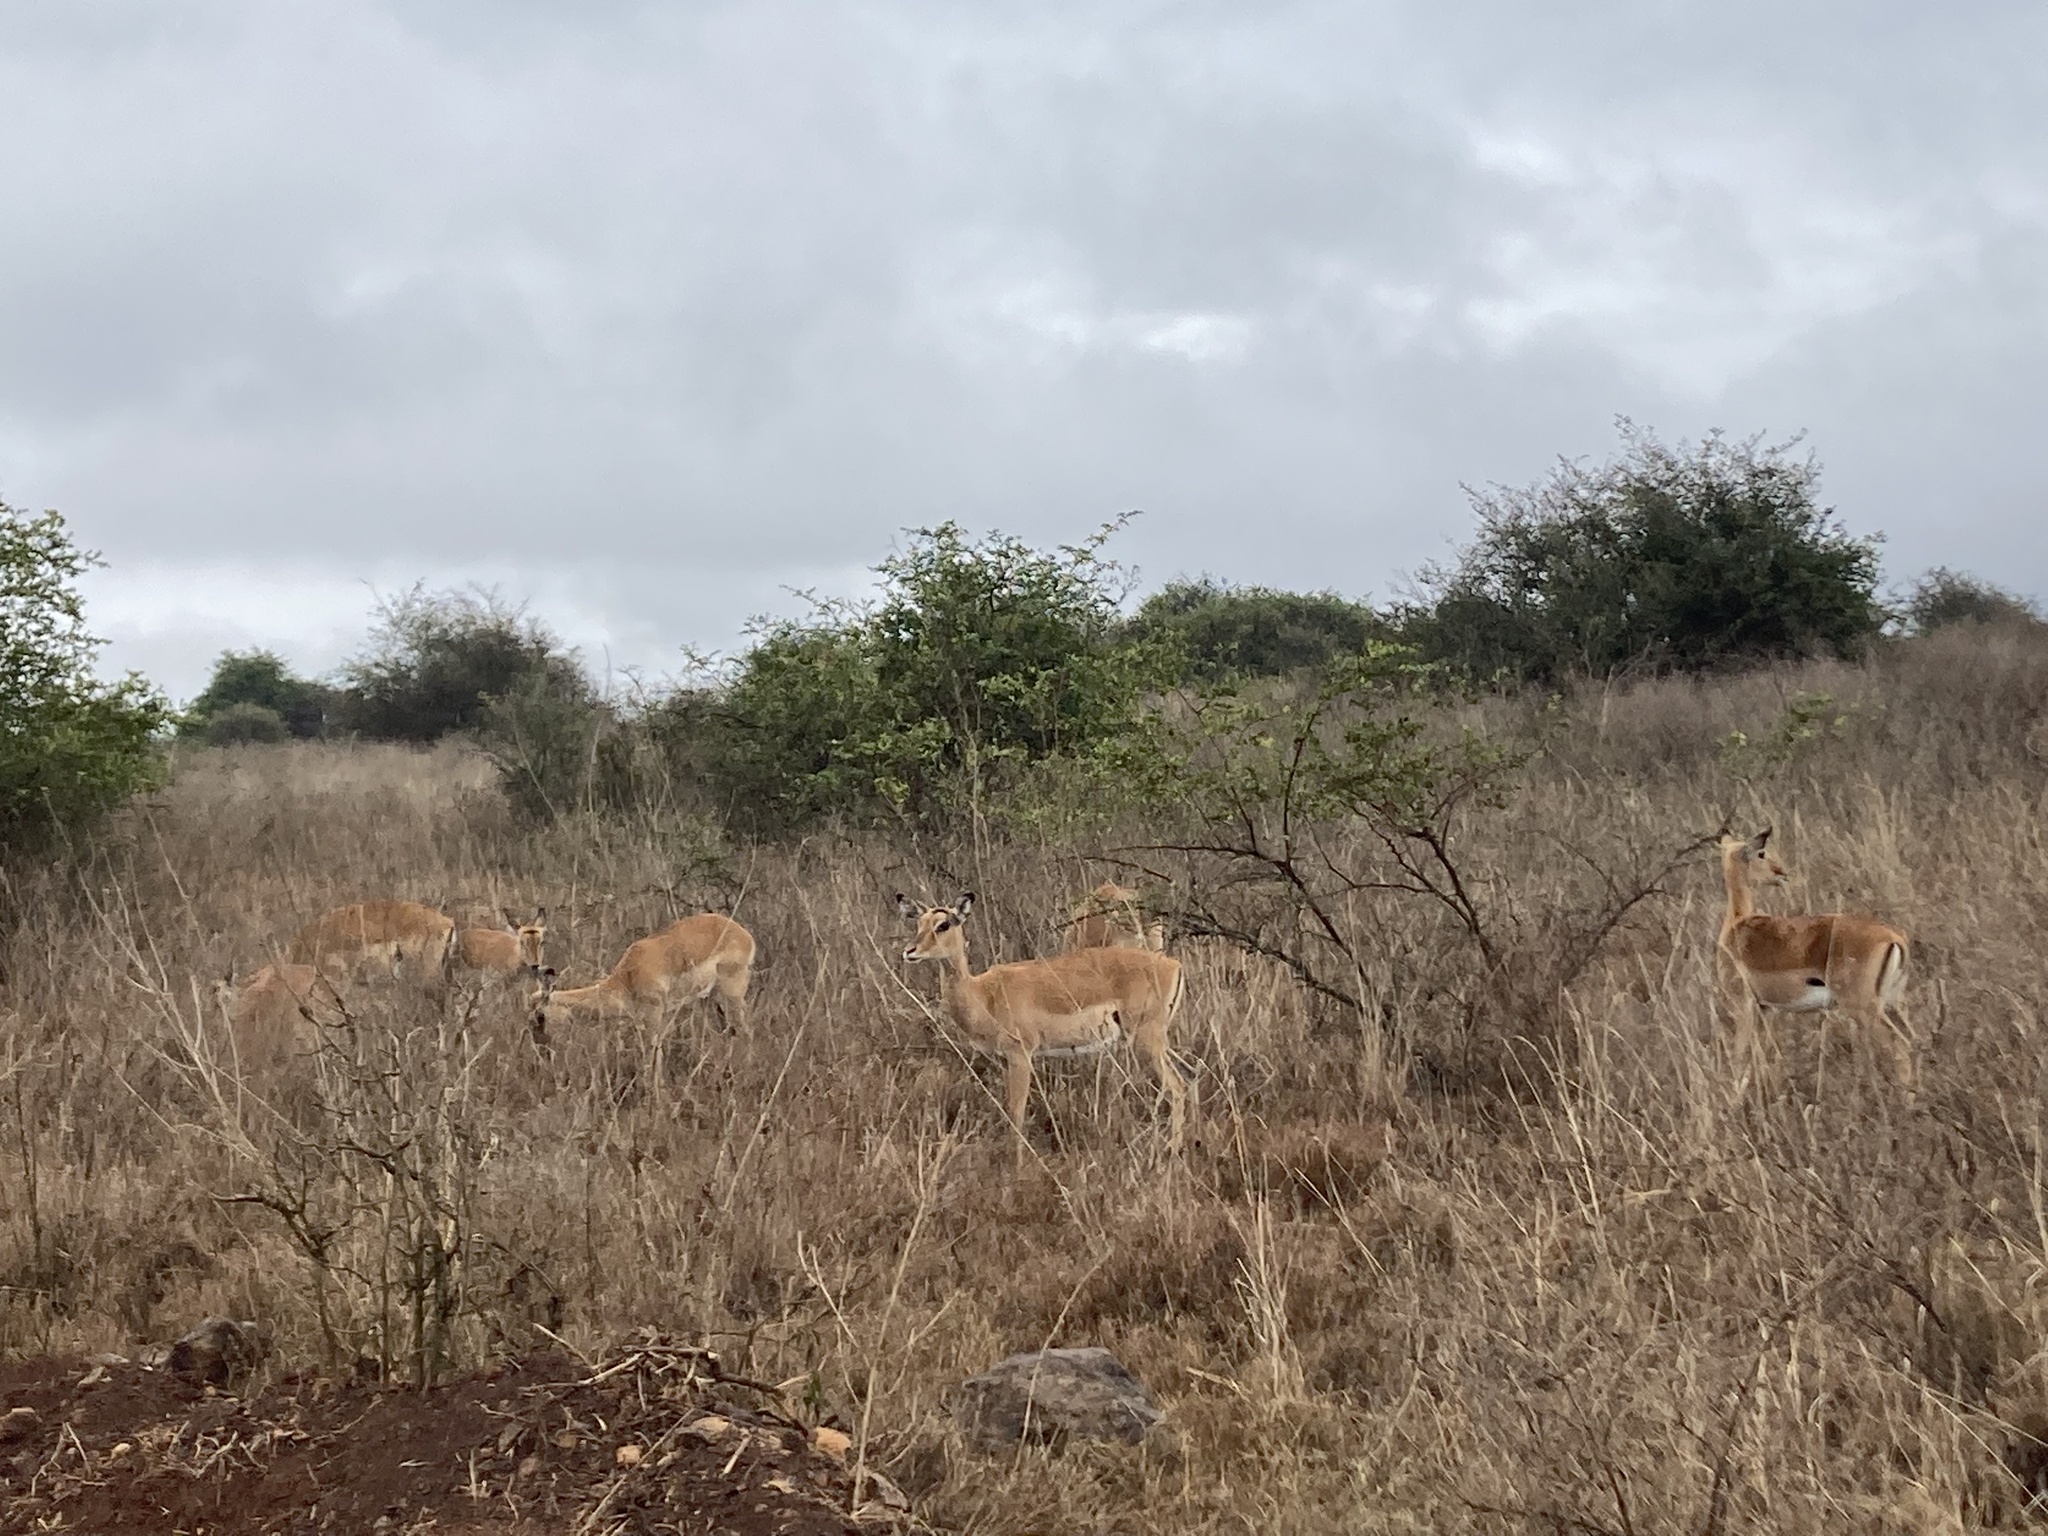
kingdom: Animalia
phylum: Chordata
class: Mammalia
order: Artiodactyla
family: Bovidae
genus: Aepyceros
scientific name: Aepyceros melampus
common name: Impala
